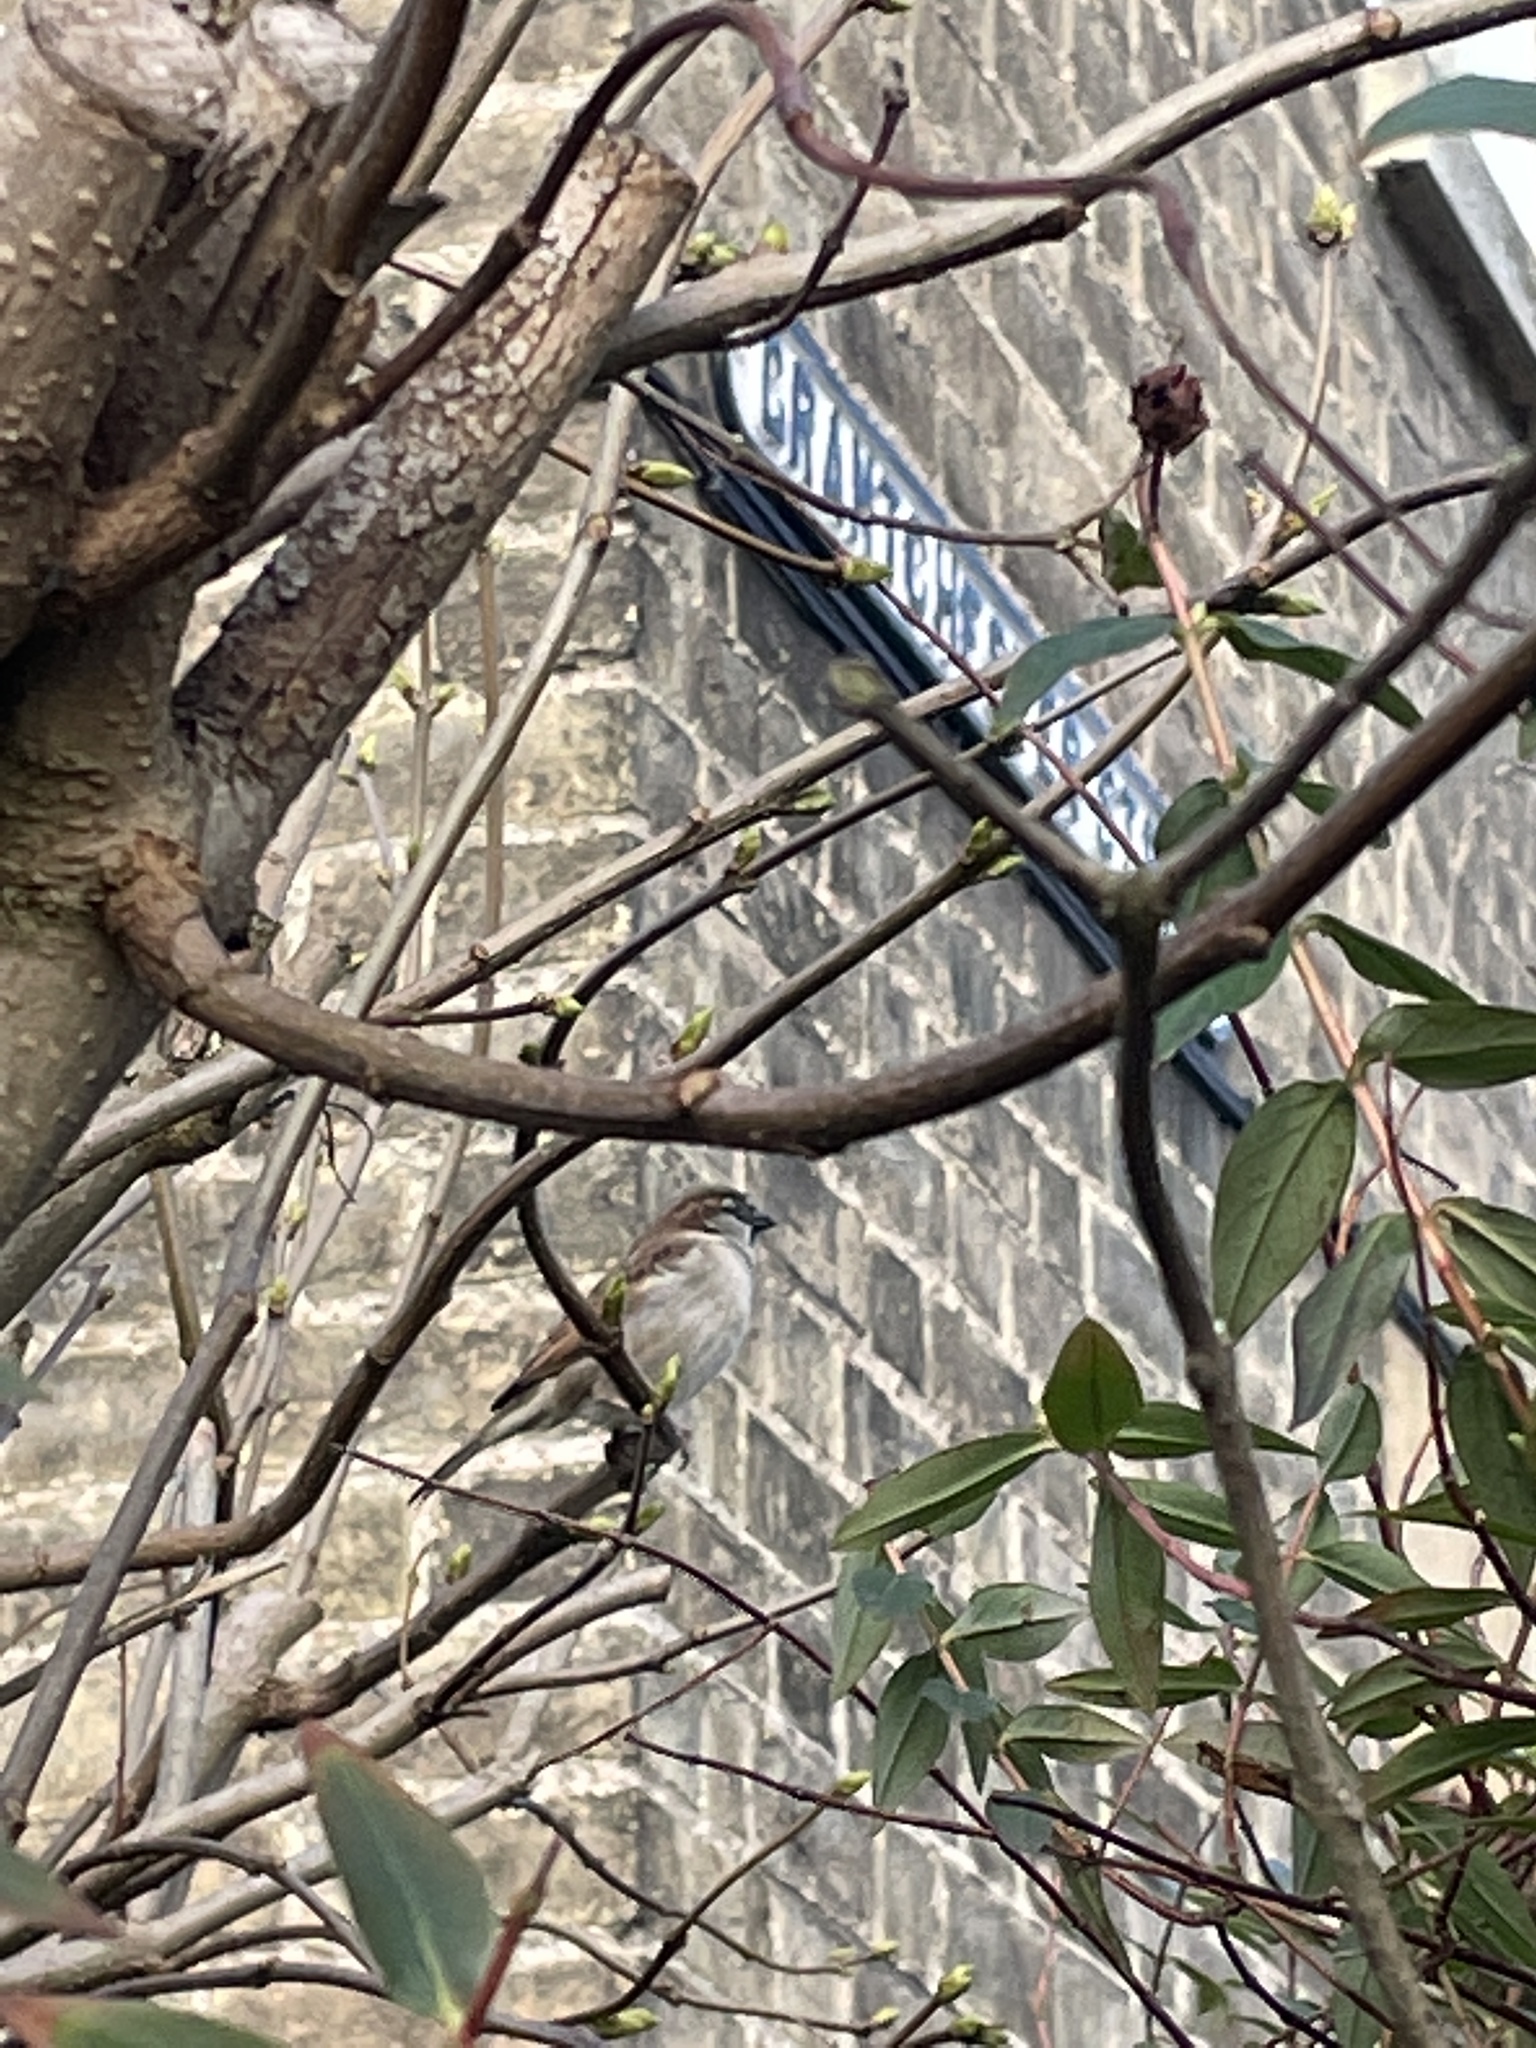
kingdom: Animalia
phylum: Chordata
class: Aves
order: Passeriformes
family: Passeridae
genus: Passer
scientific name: Passer domesticus
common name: House sparrow
